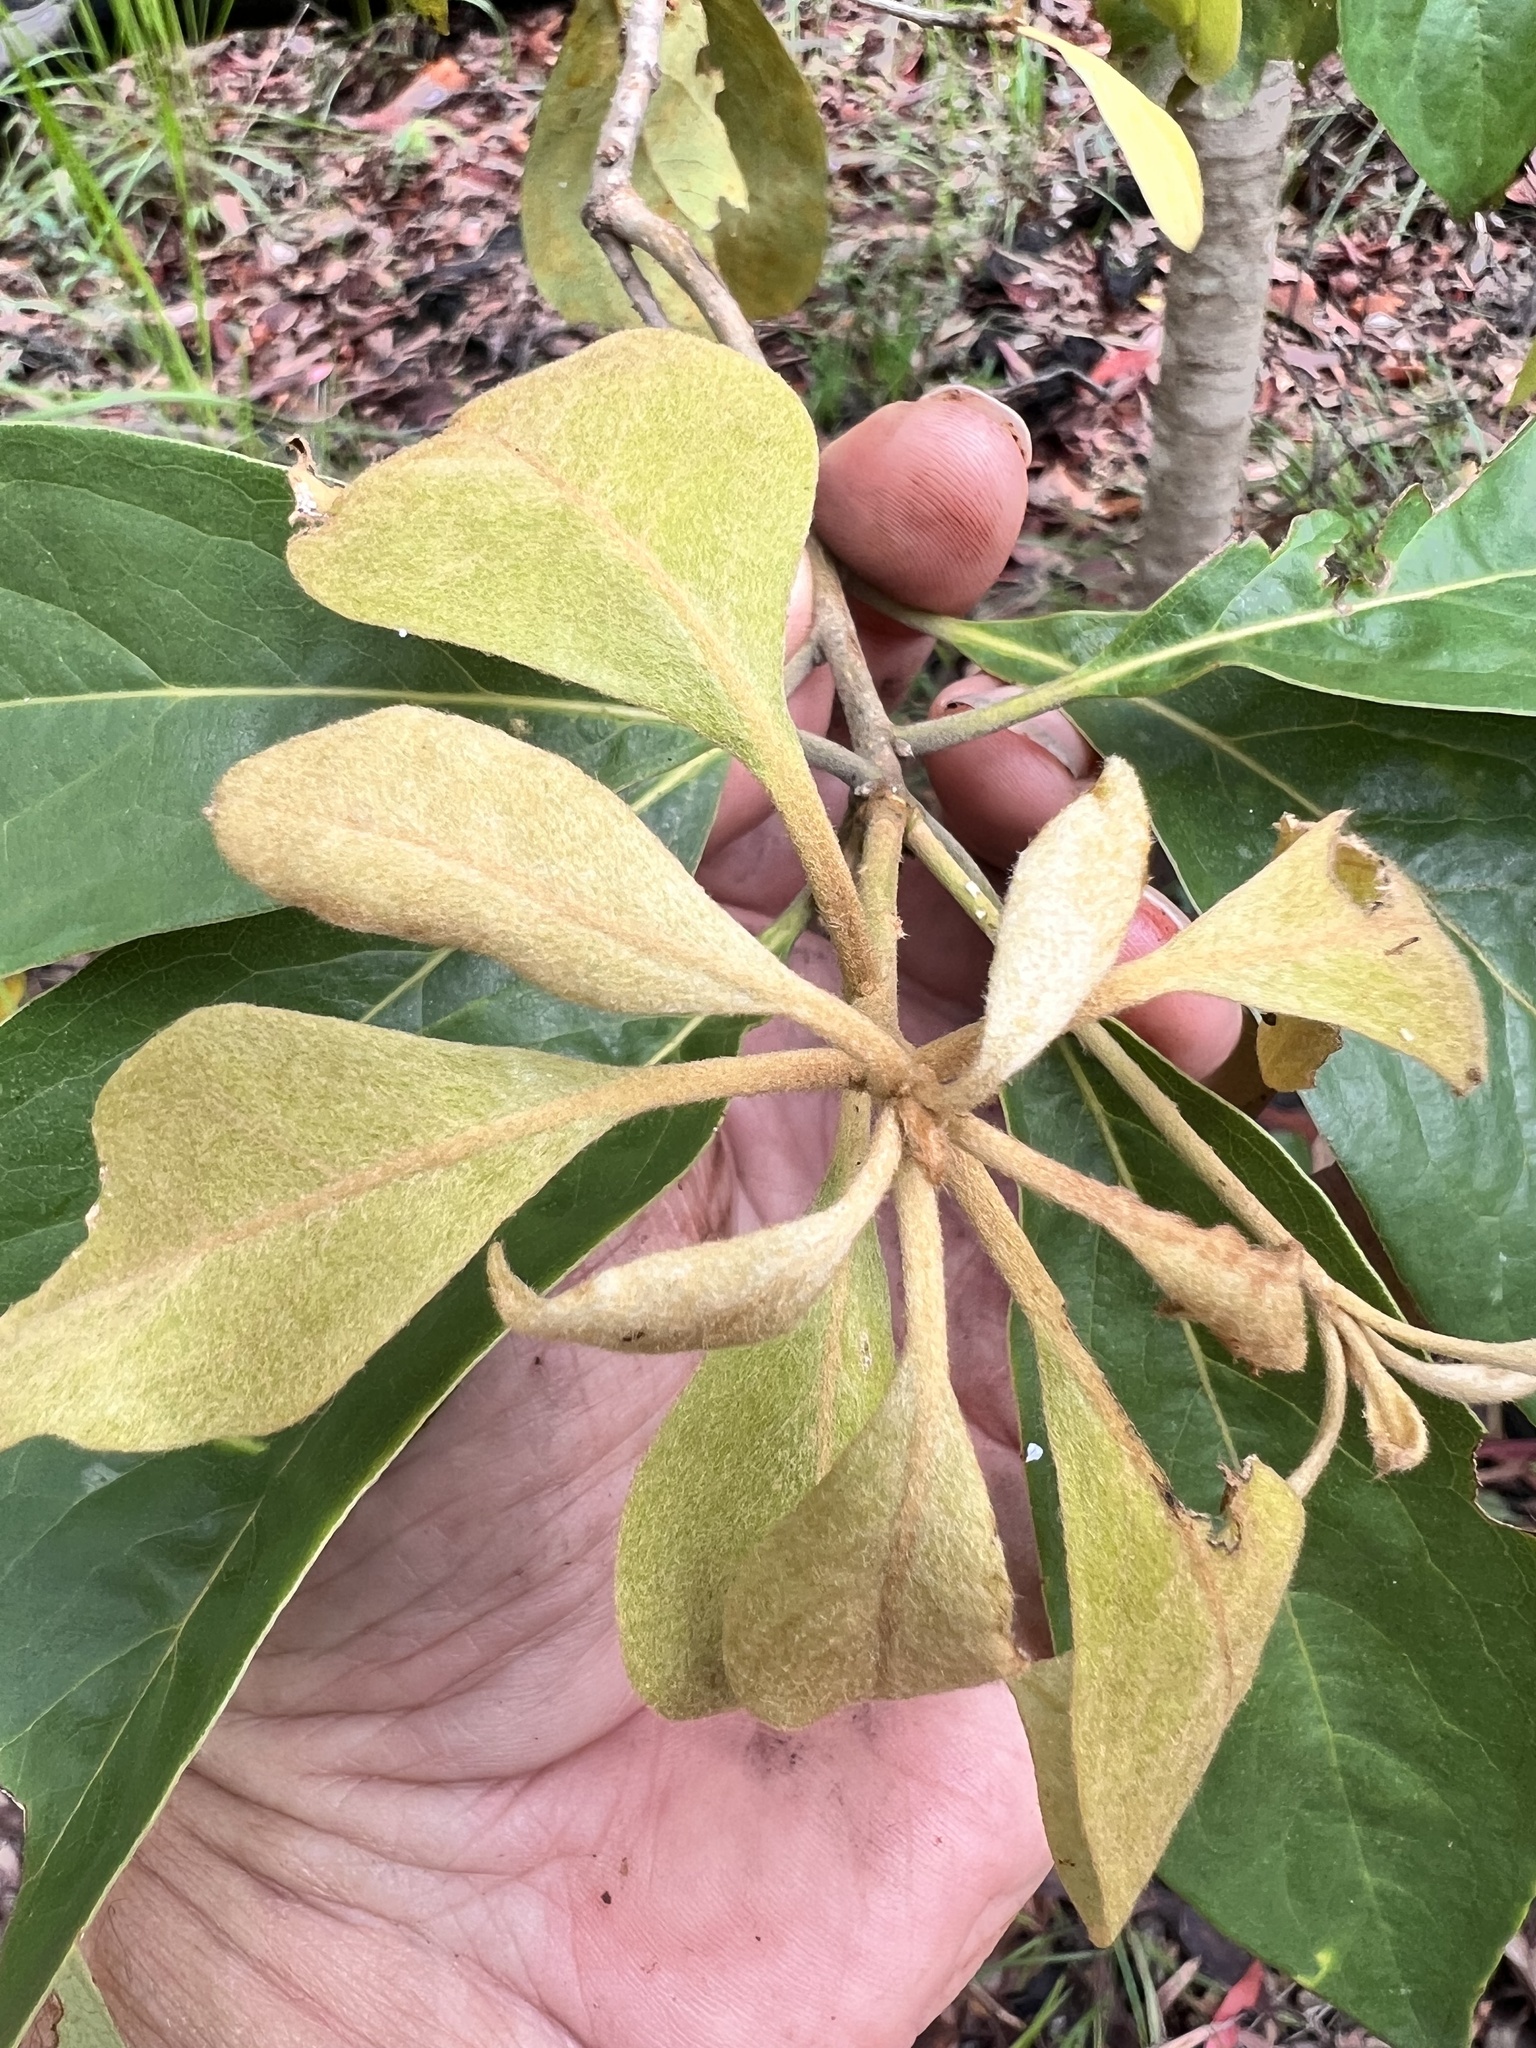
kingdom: Plantae
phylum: Tracheophyta
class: Magnoliopsida
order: Apiales
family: Pittosporaceae
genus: Pittosporum
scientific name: Pittosporum revolutum
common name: Brisbane-laurel
